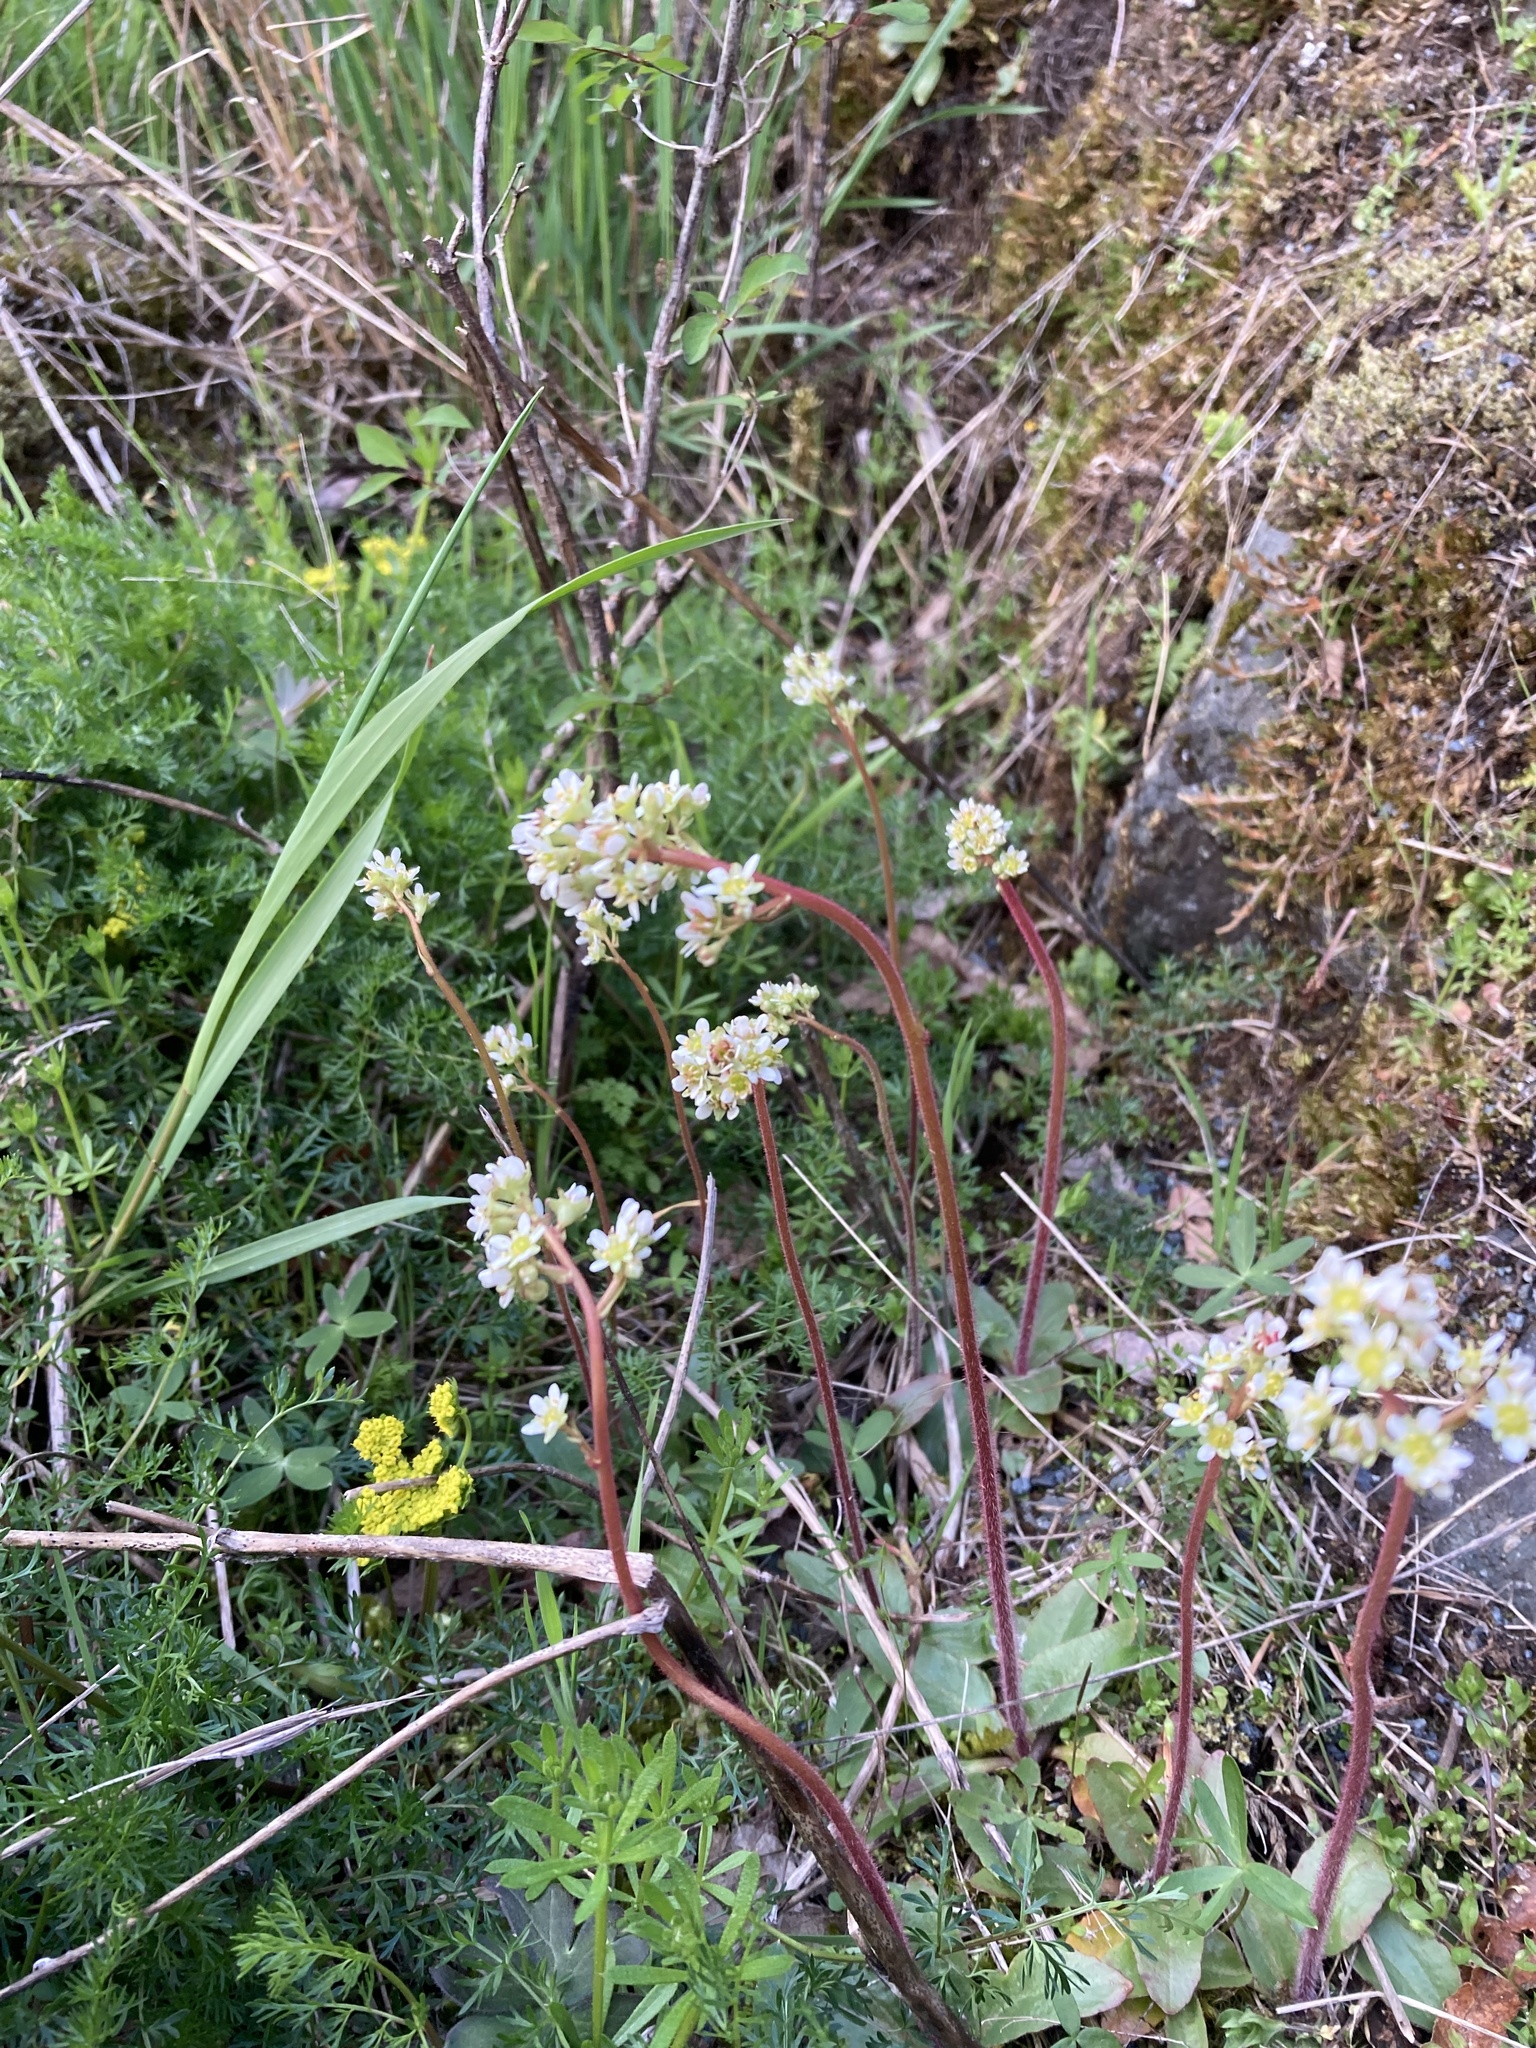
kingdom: Plantae
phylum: Tracheophyta
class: Magnoliopsida
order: Saxifragales
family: Saxifragaceae
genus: Micranthes
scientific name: Micranthes integrifolia
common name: Wholeleaf saxifrage
